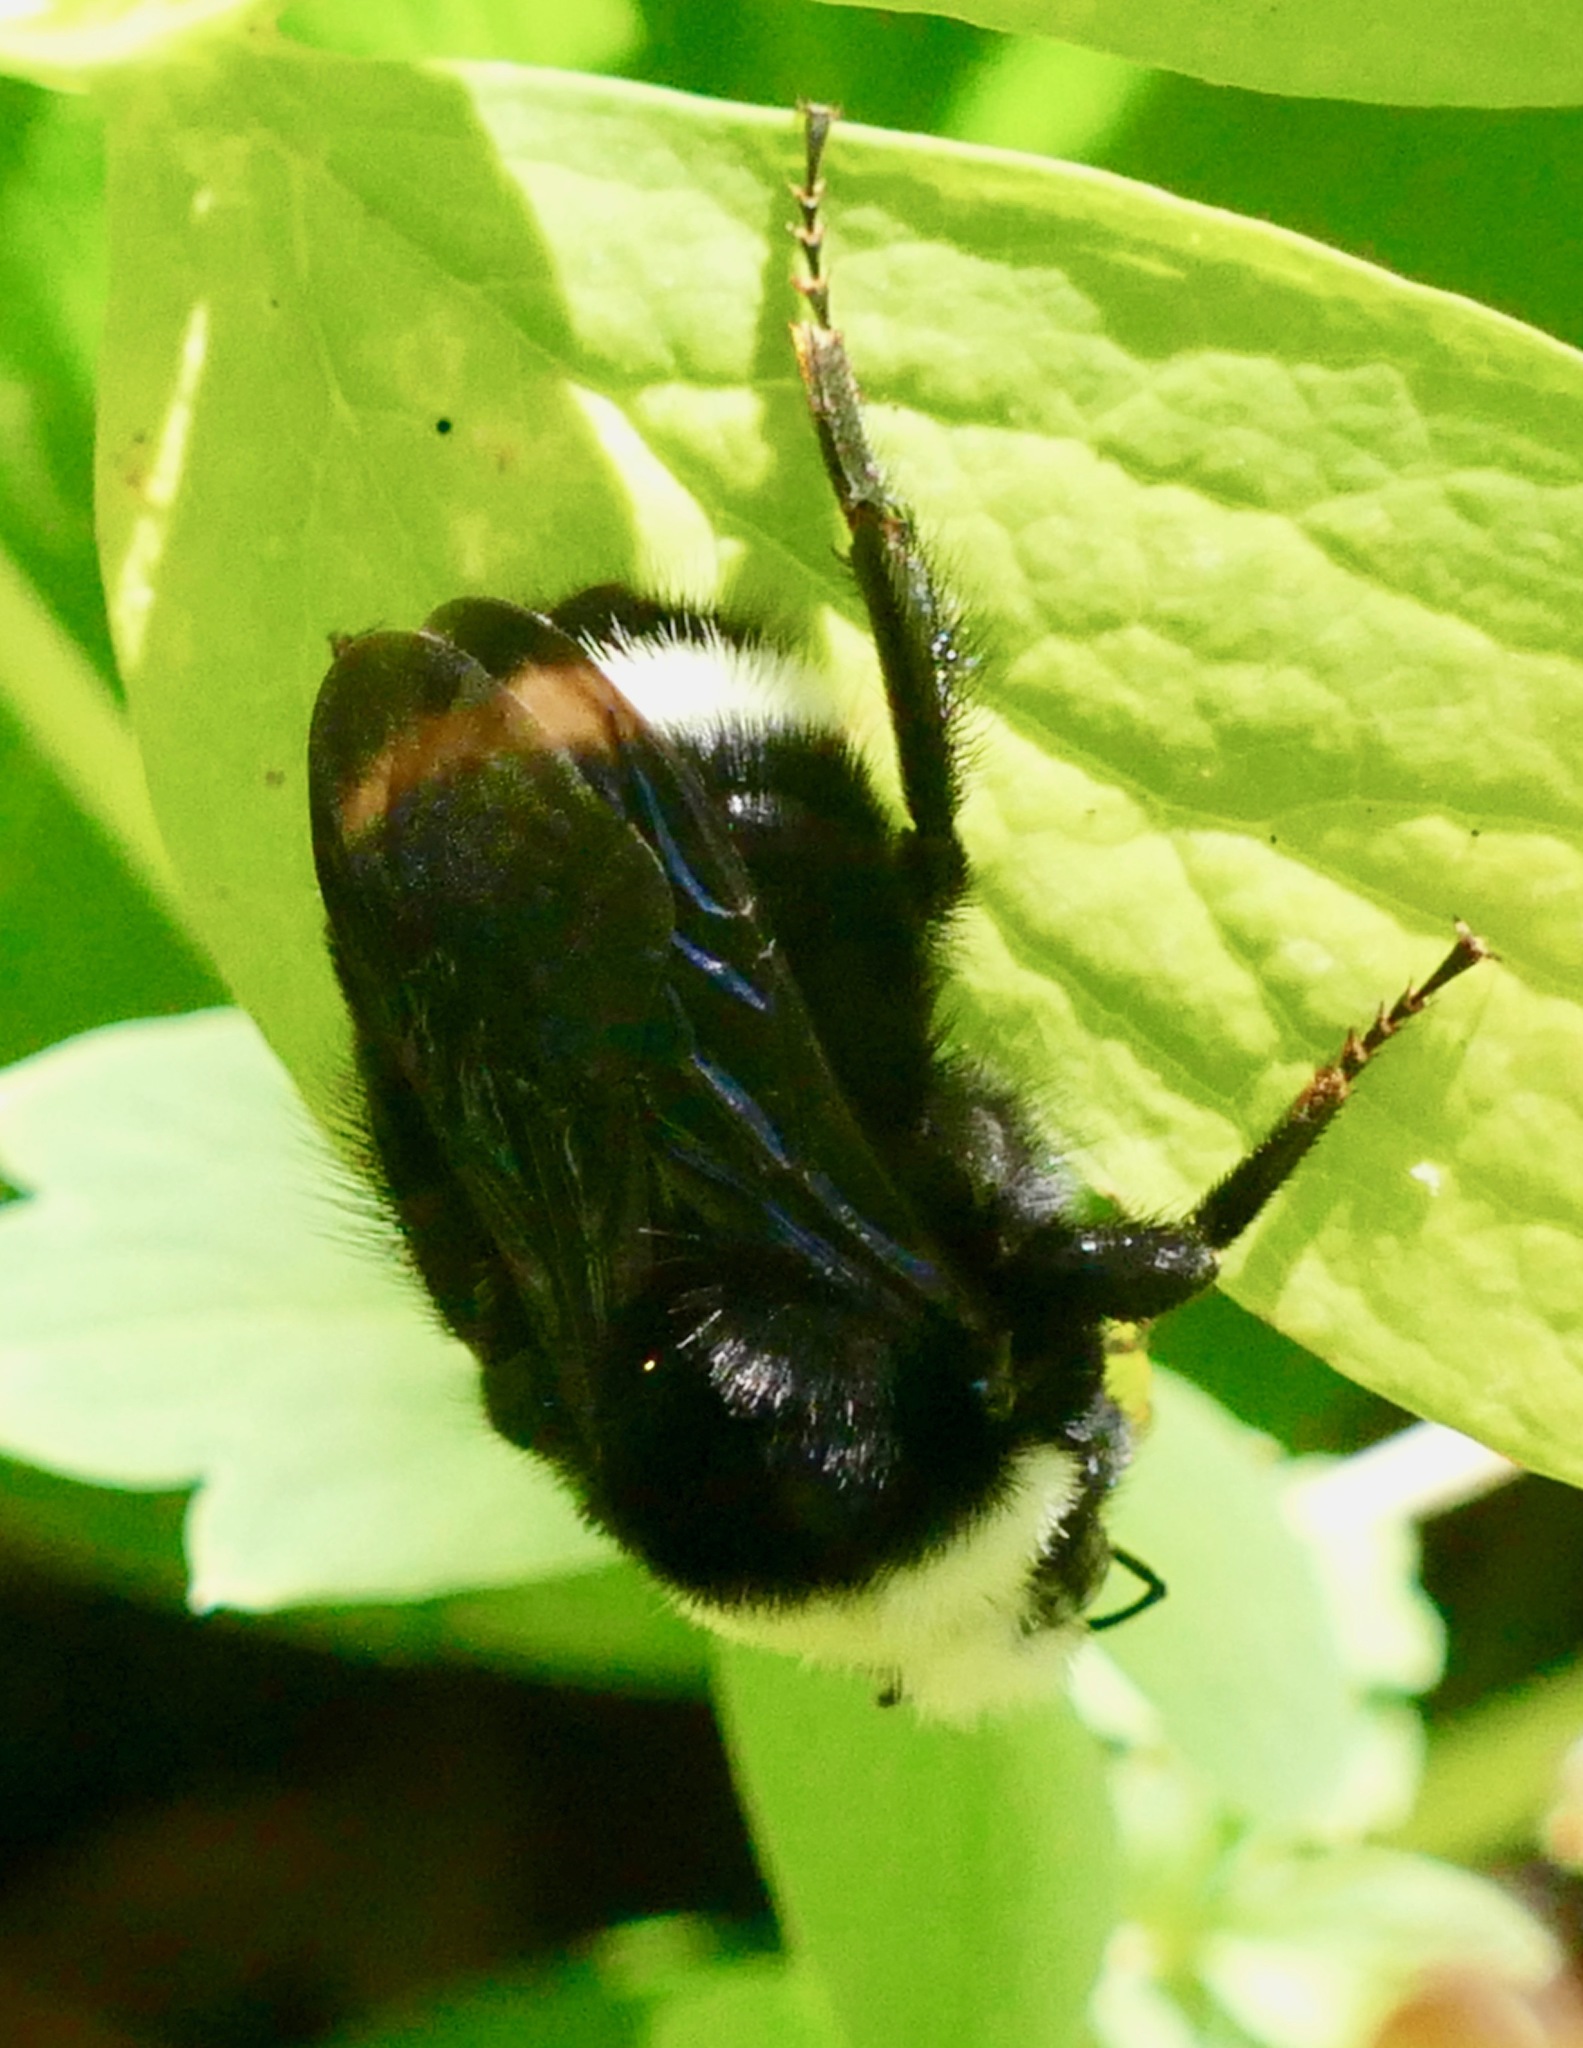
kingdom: Animalia
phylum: Arthropoda
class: Insecta
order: Hymenoptera
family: Apidae
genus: Bombus
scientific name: Bombus vosnesenskii
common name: Vosnesensky bumble bee
